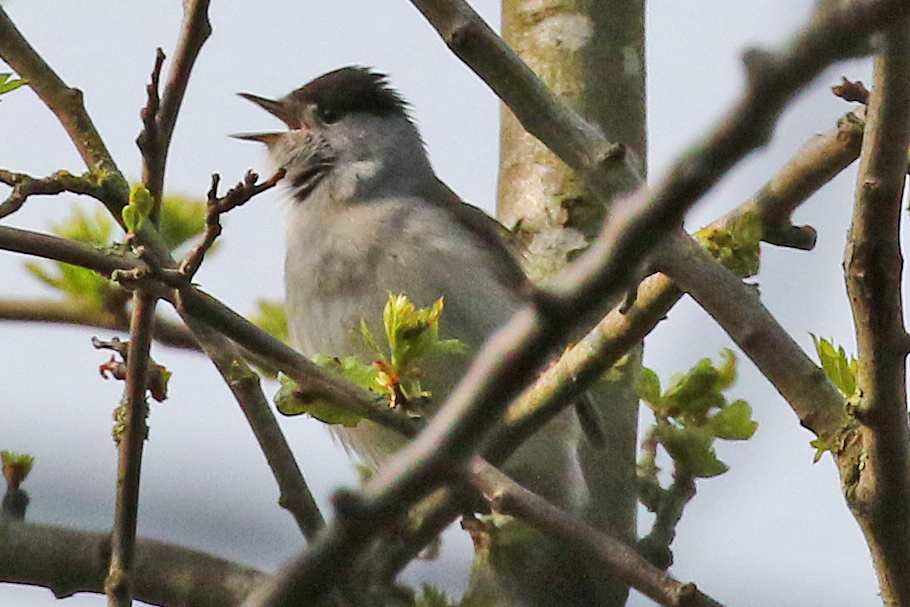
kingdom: Animalia
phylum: Chordata
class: Aves
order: Passeriformes
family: Sylviidae
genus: Sylvia
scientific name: Sylvia atricapilla
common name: Eurasian blackcap
